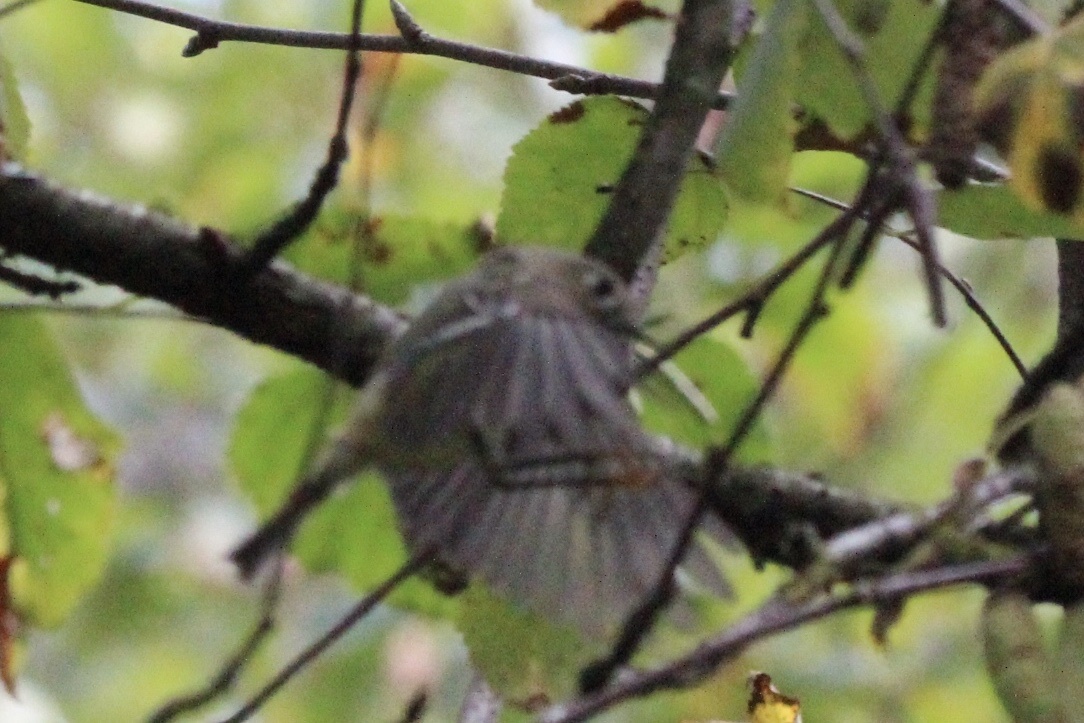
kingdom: Animalia
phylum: Chordata
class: Aves
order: Passeriformes
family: Regulidae
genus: Regulus
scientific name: Regulus calendula
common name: Ruby-crowned kinglet
